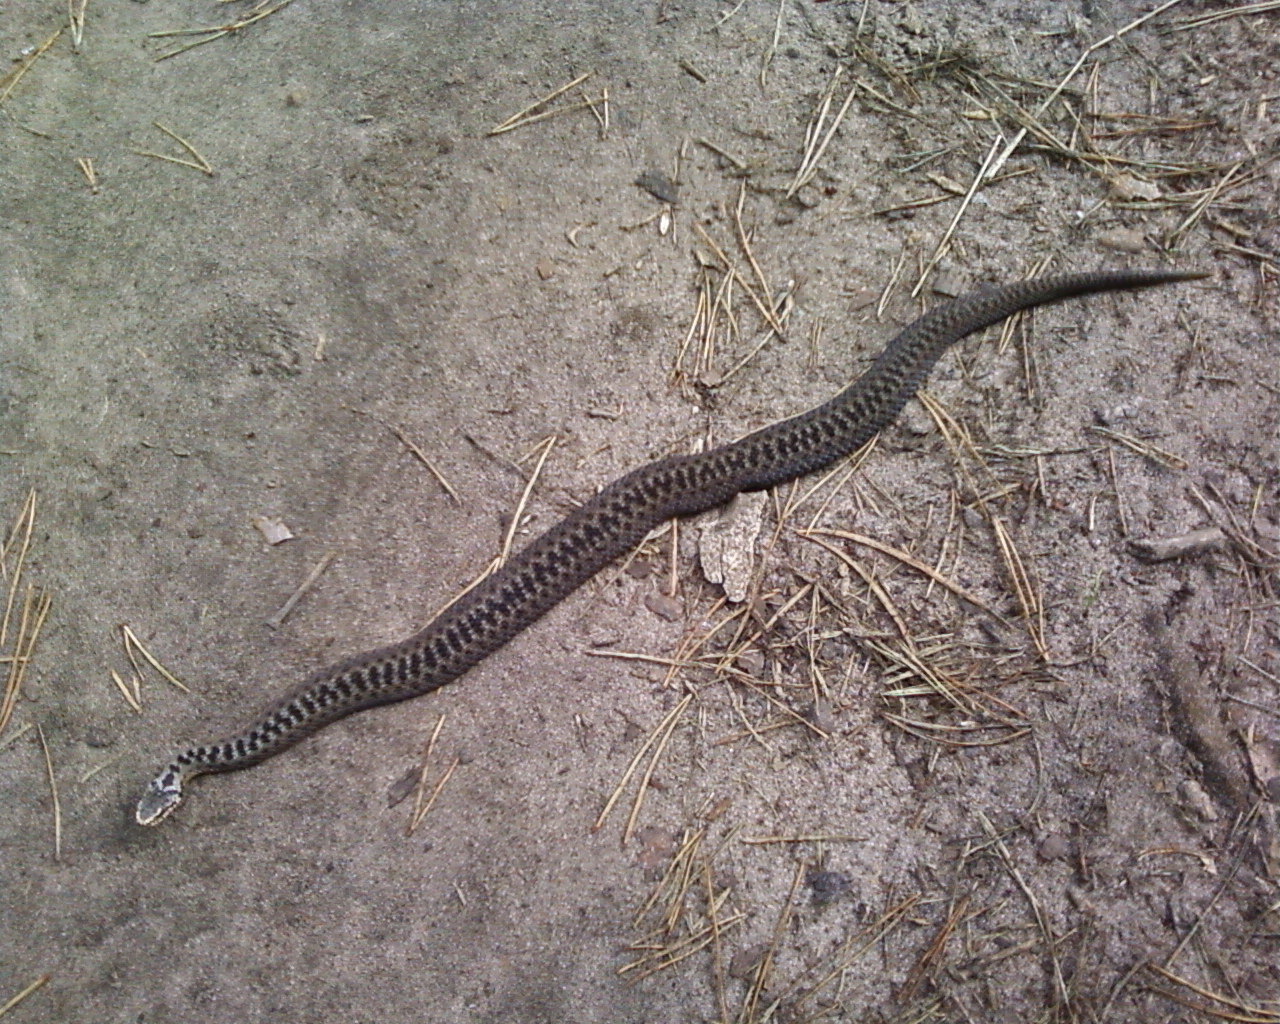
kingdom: Animalia
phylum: Chordata
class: Squamata
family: Viperidae
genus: Vipera
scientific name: Vipera berus
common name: Adder
